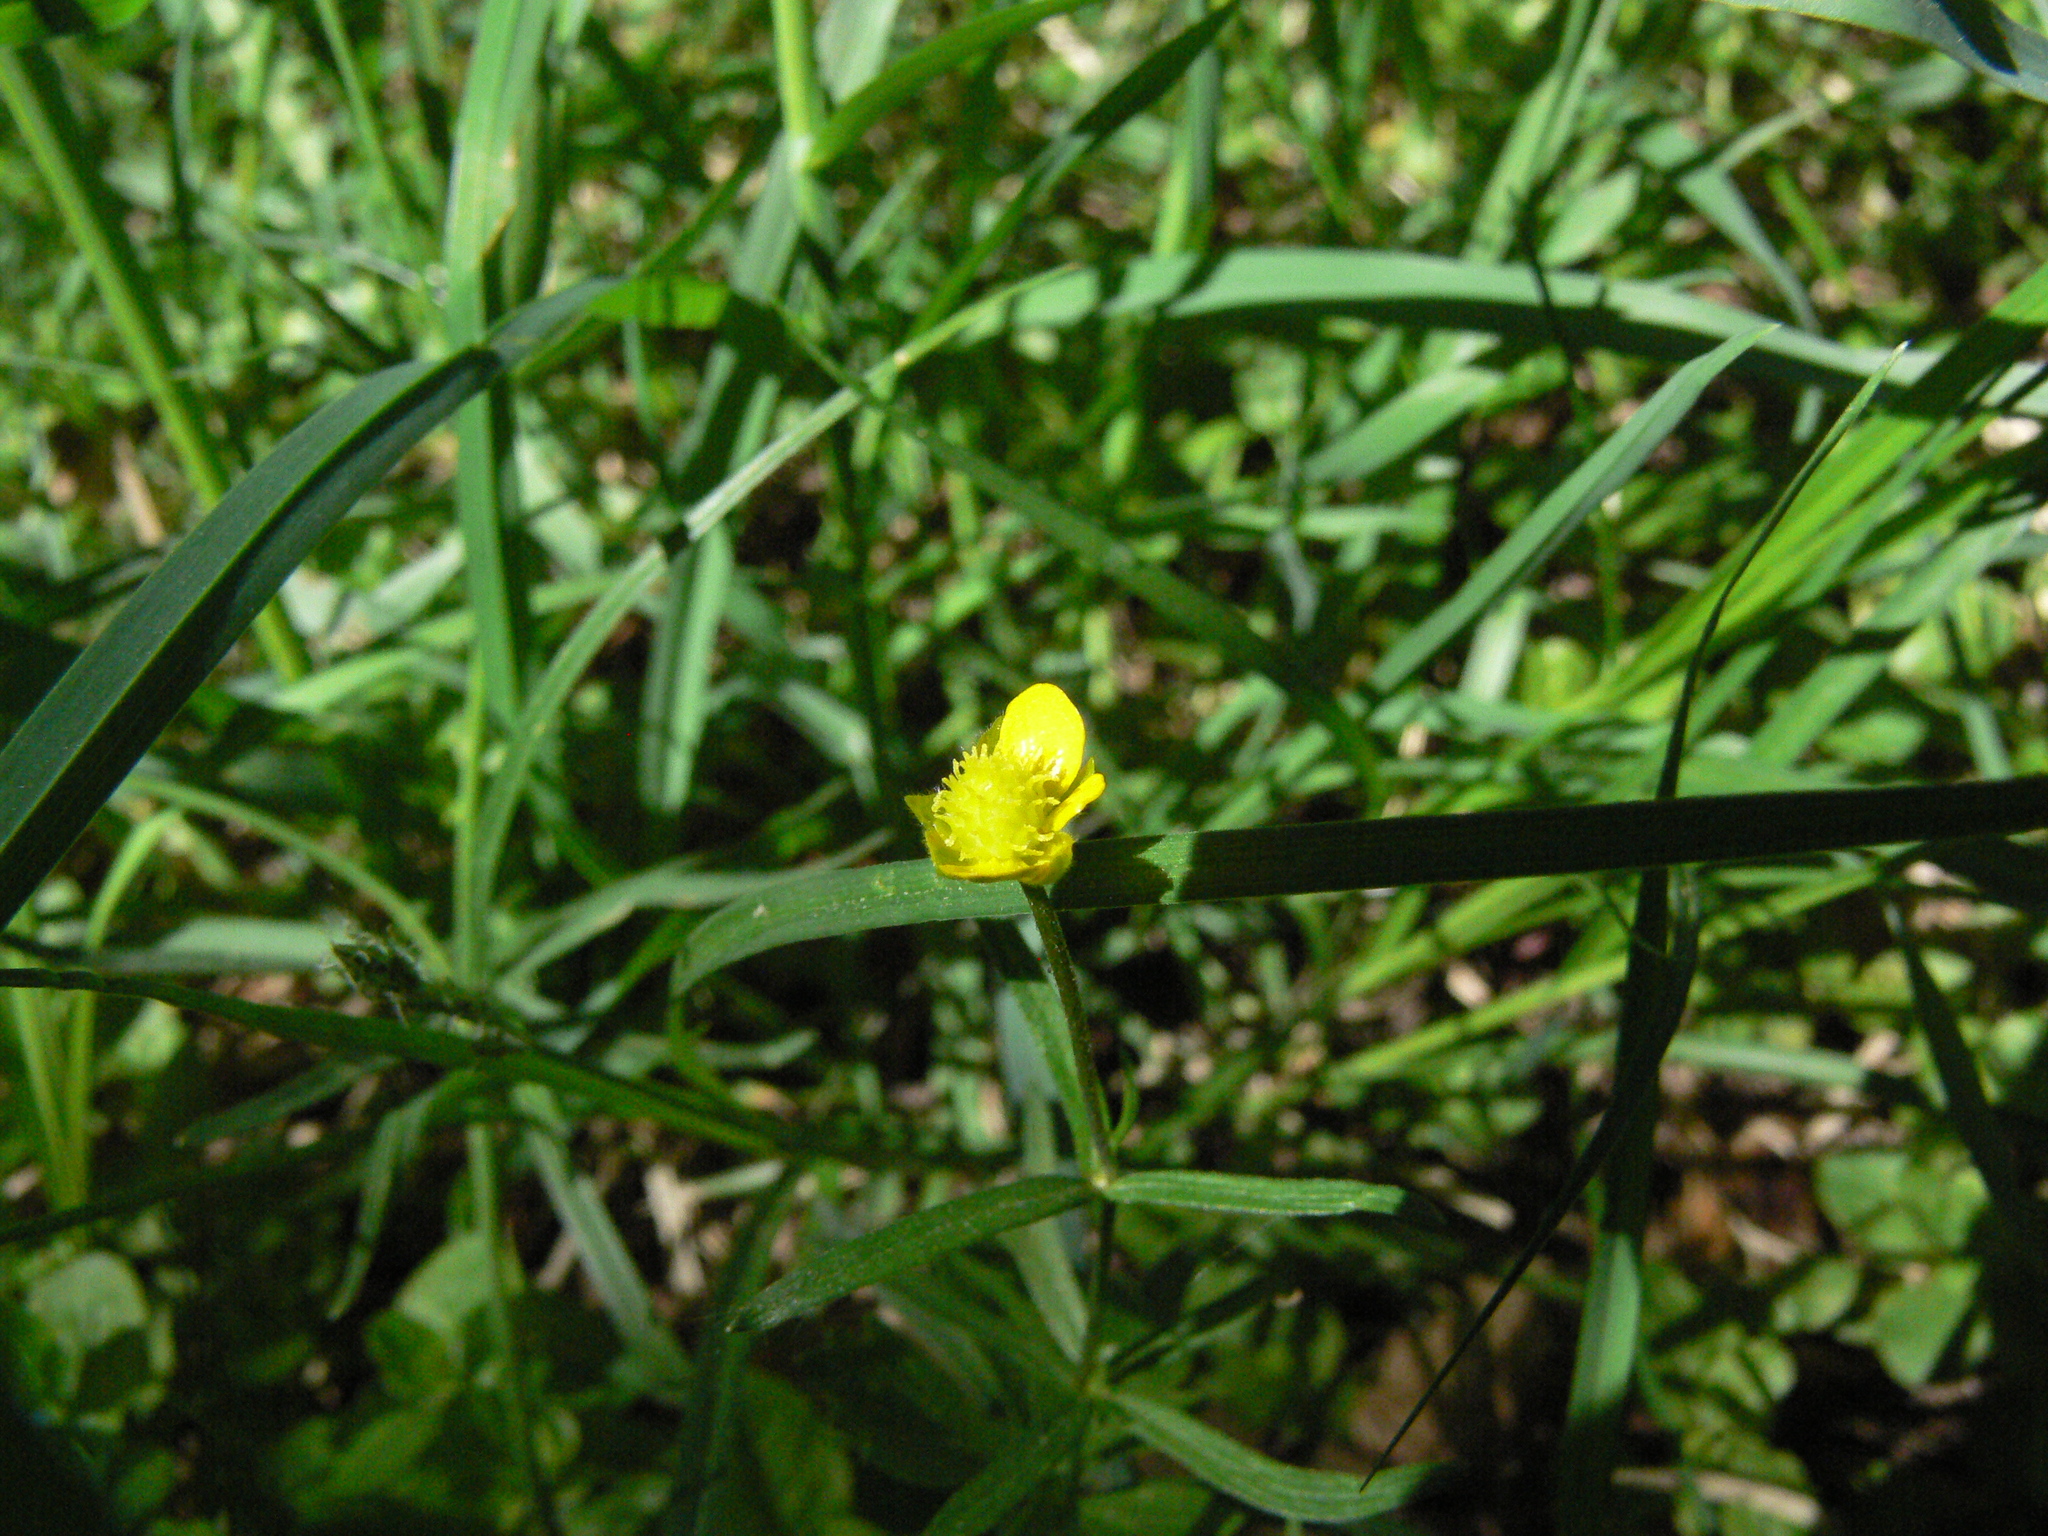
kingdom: Plantae
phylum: Tracheophyta
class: Magnoliopsida
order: Ranunculales
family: Ranunculaceae
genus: Ranunculus
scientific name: Ranunculus auricomus
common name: Goldilocks buttercup
